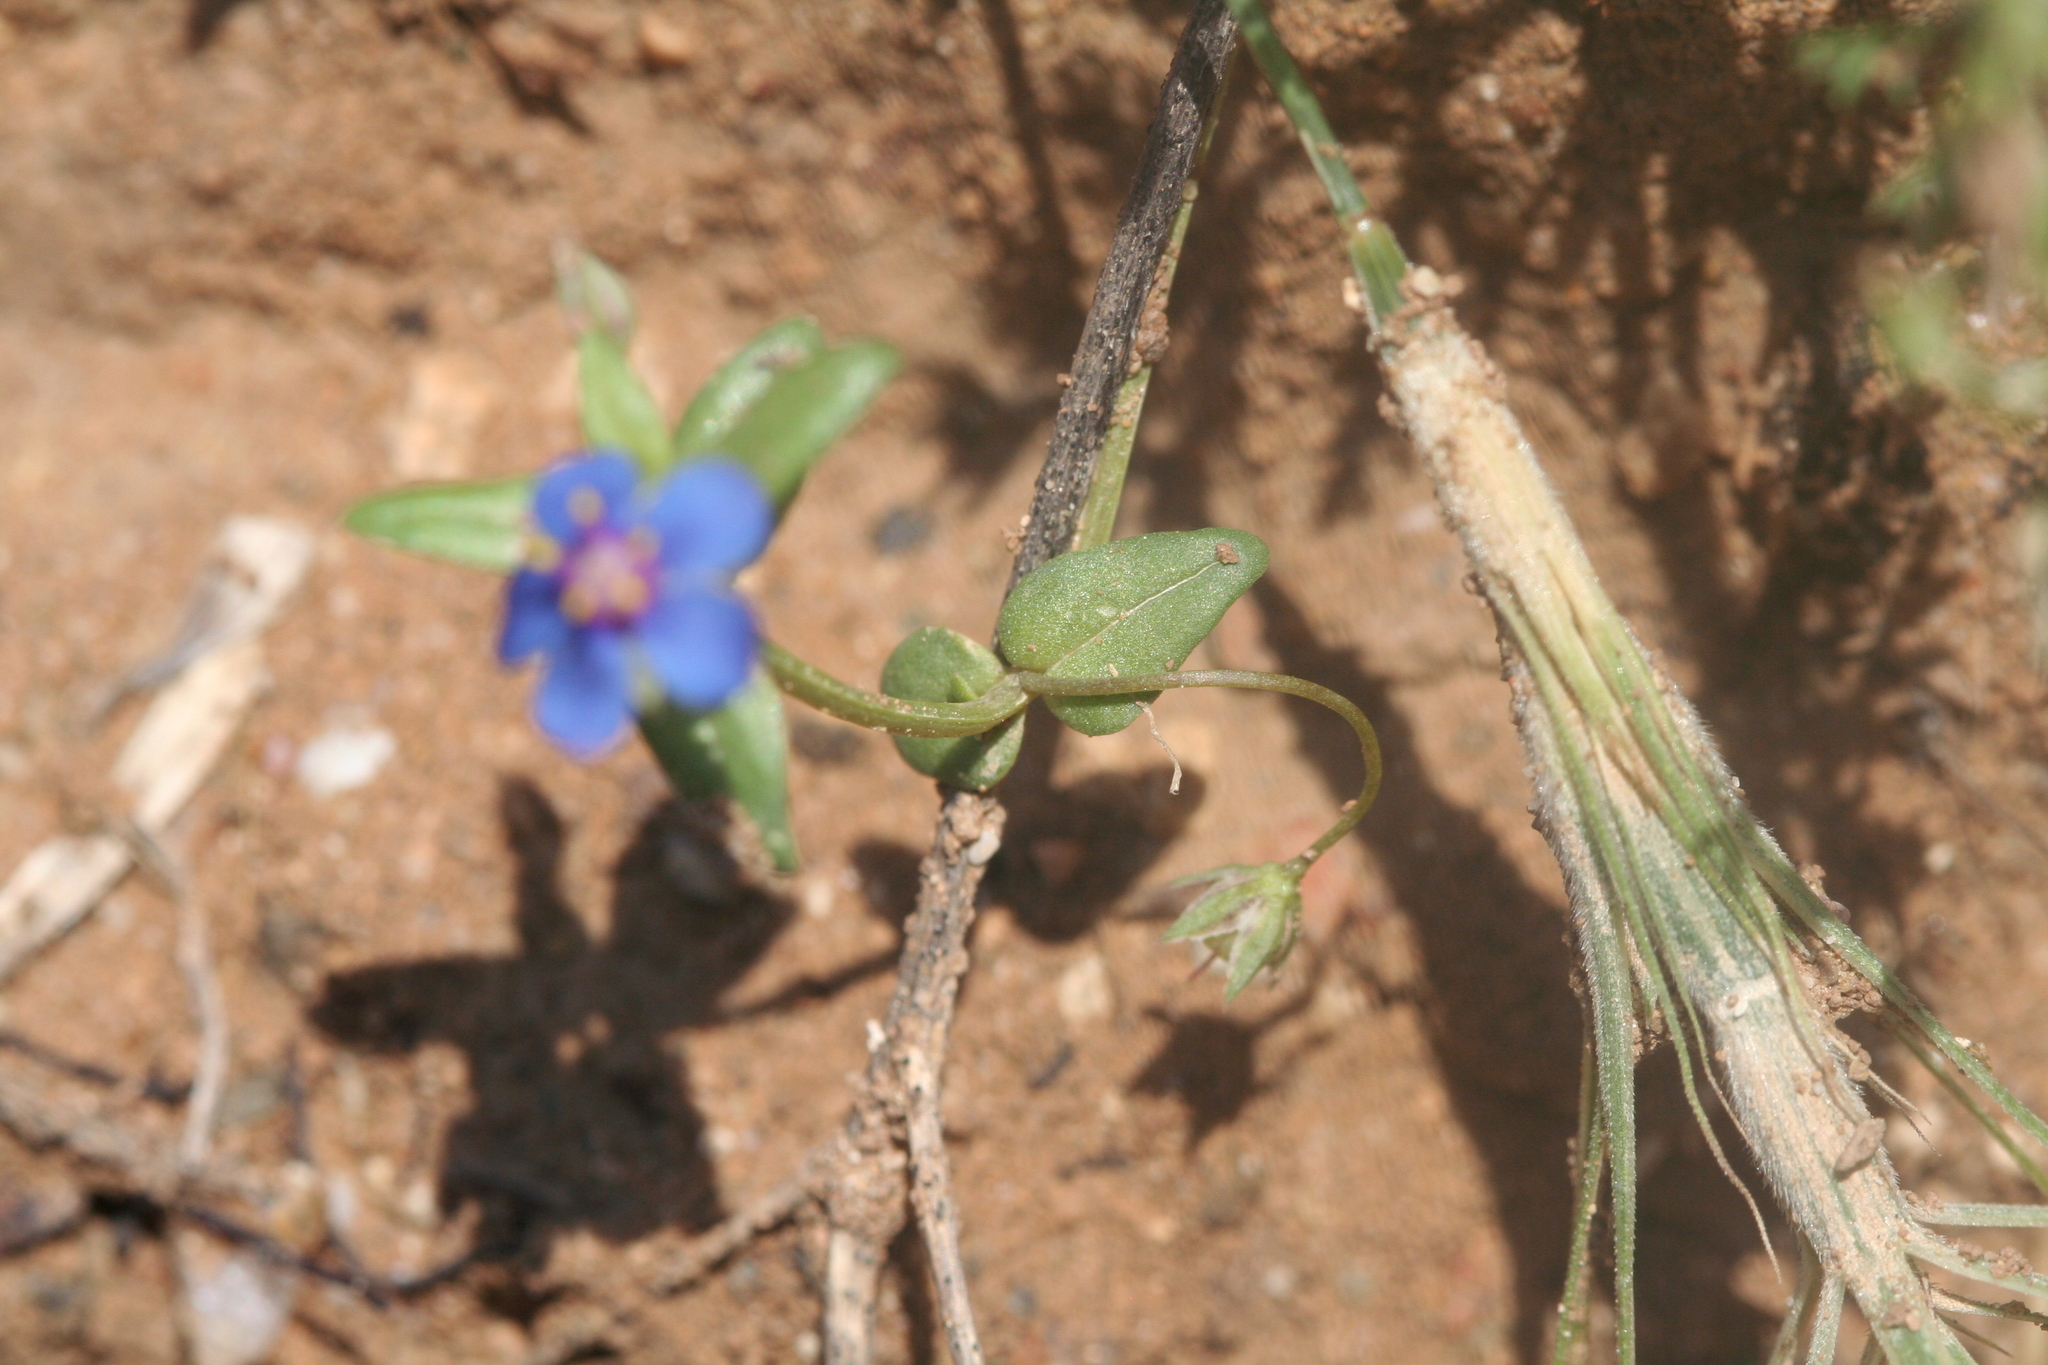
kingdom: Plantae
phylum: Tracheophyta
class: Magnoliopsida
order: Ericales
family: Primulaceae
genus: Lysimachia
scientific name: Lysimachia foemina
